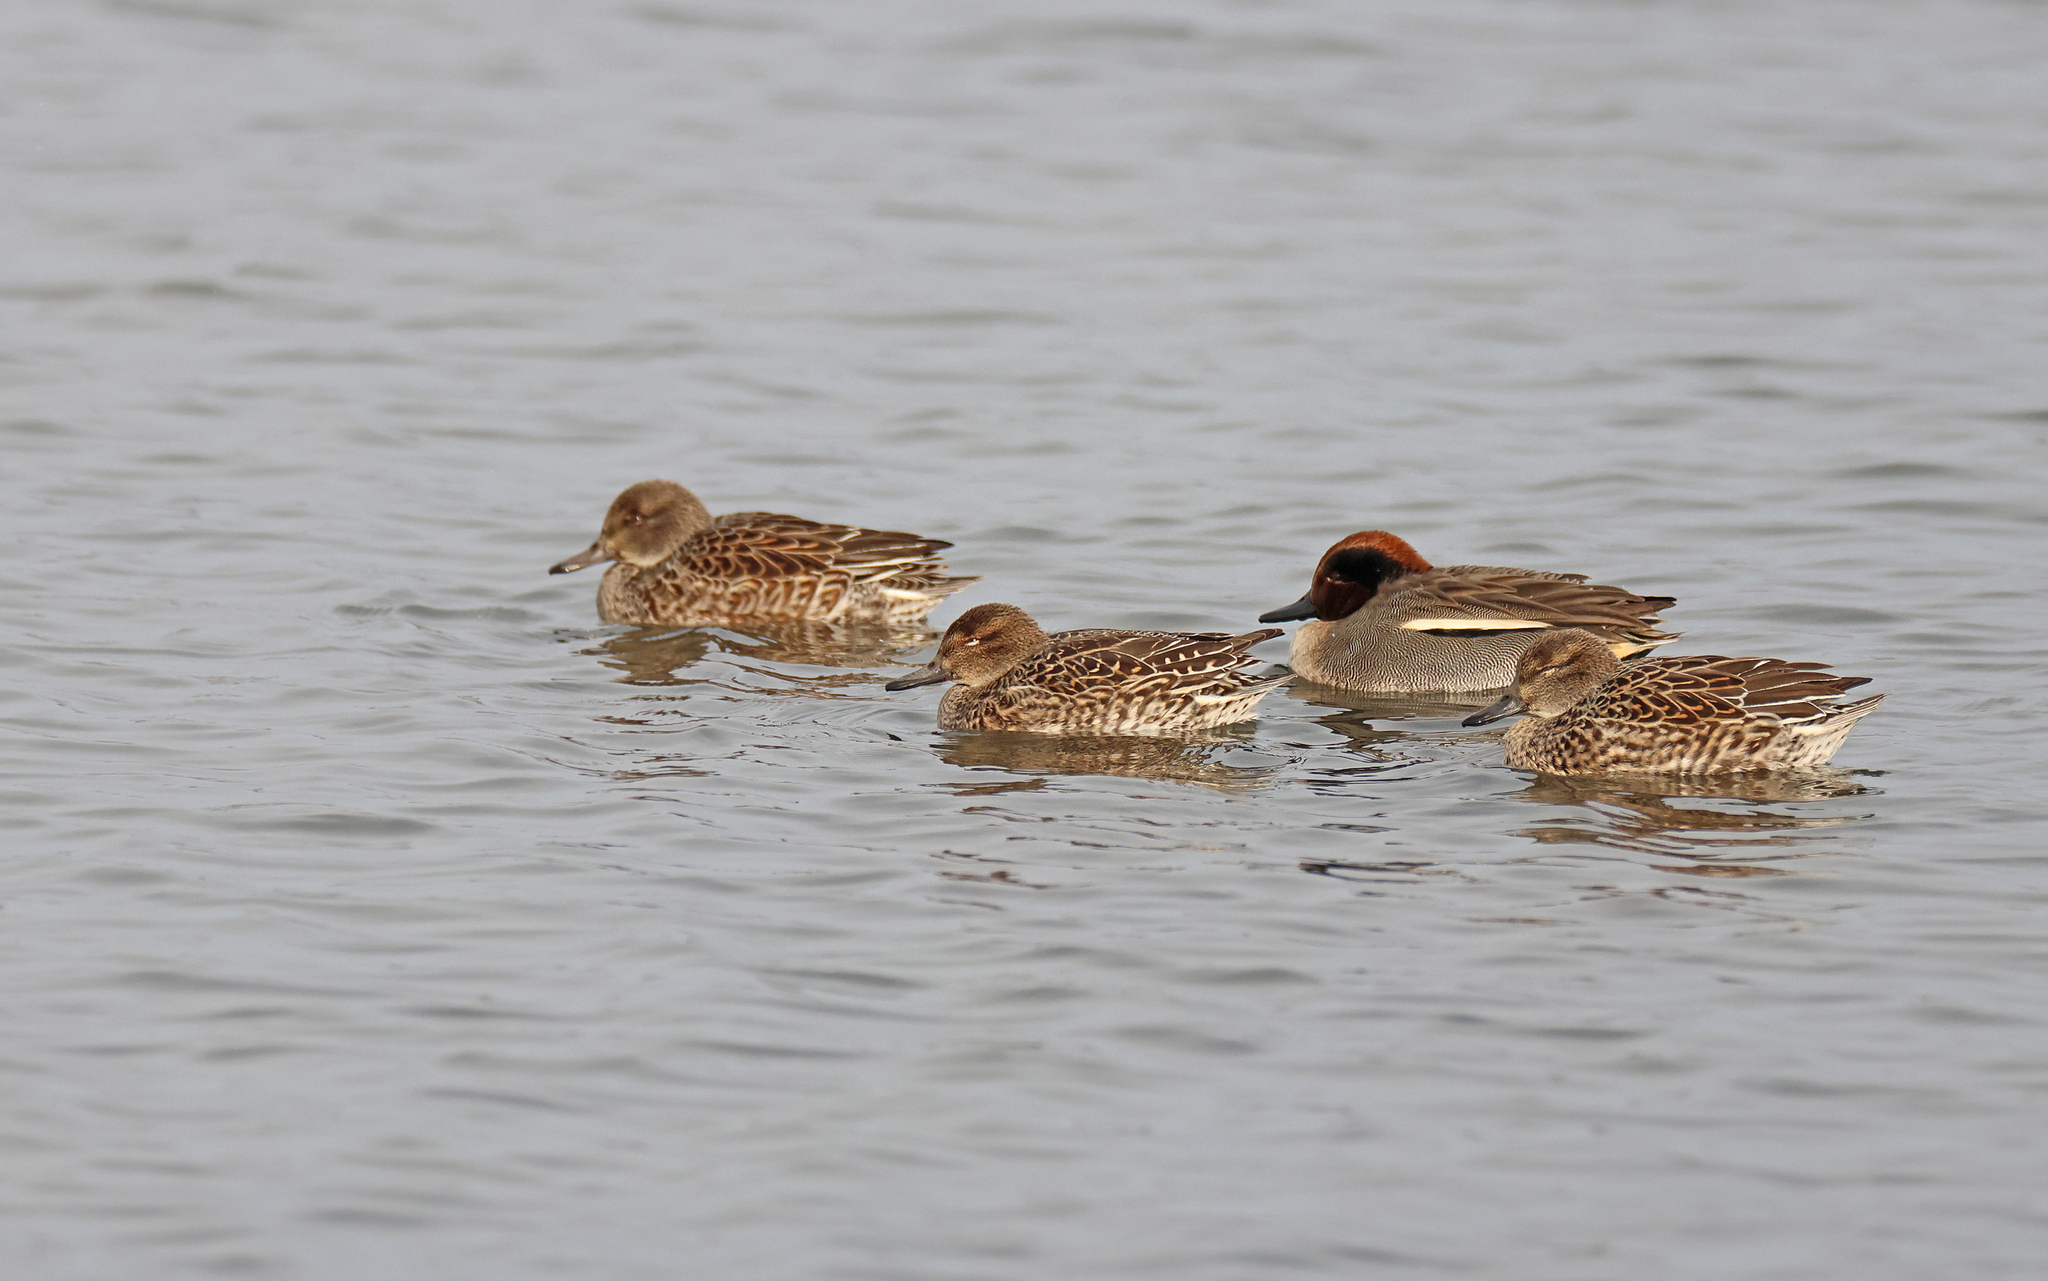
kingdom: Animalia
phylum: Chordata
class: Aves
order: Anseriformes
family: Anatidae
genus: Anas
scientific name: Anas crecca
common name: Eurasian teal
